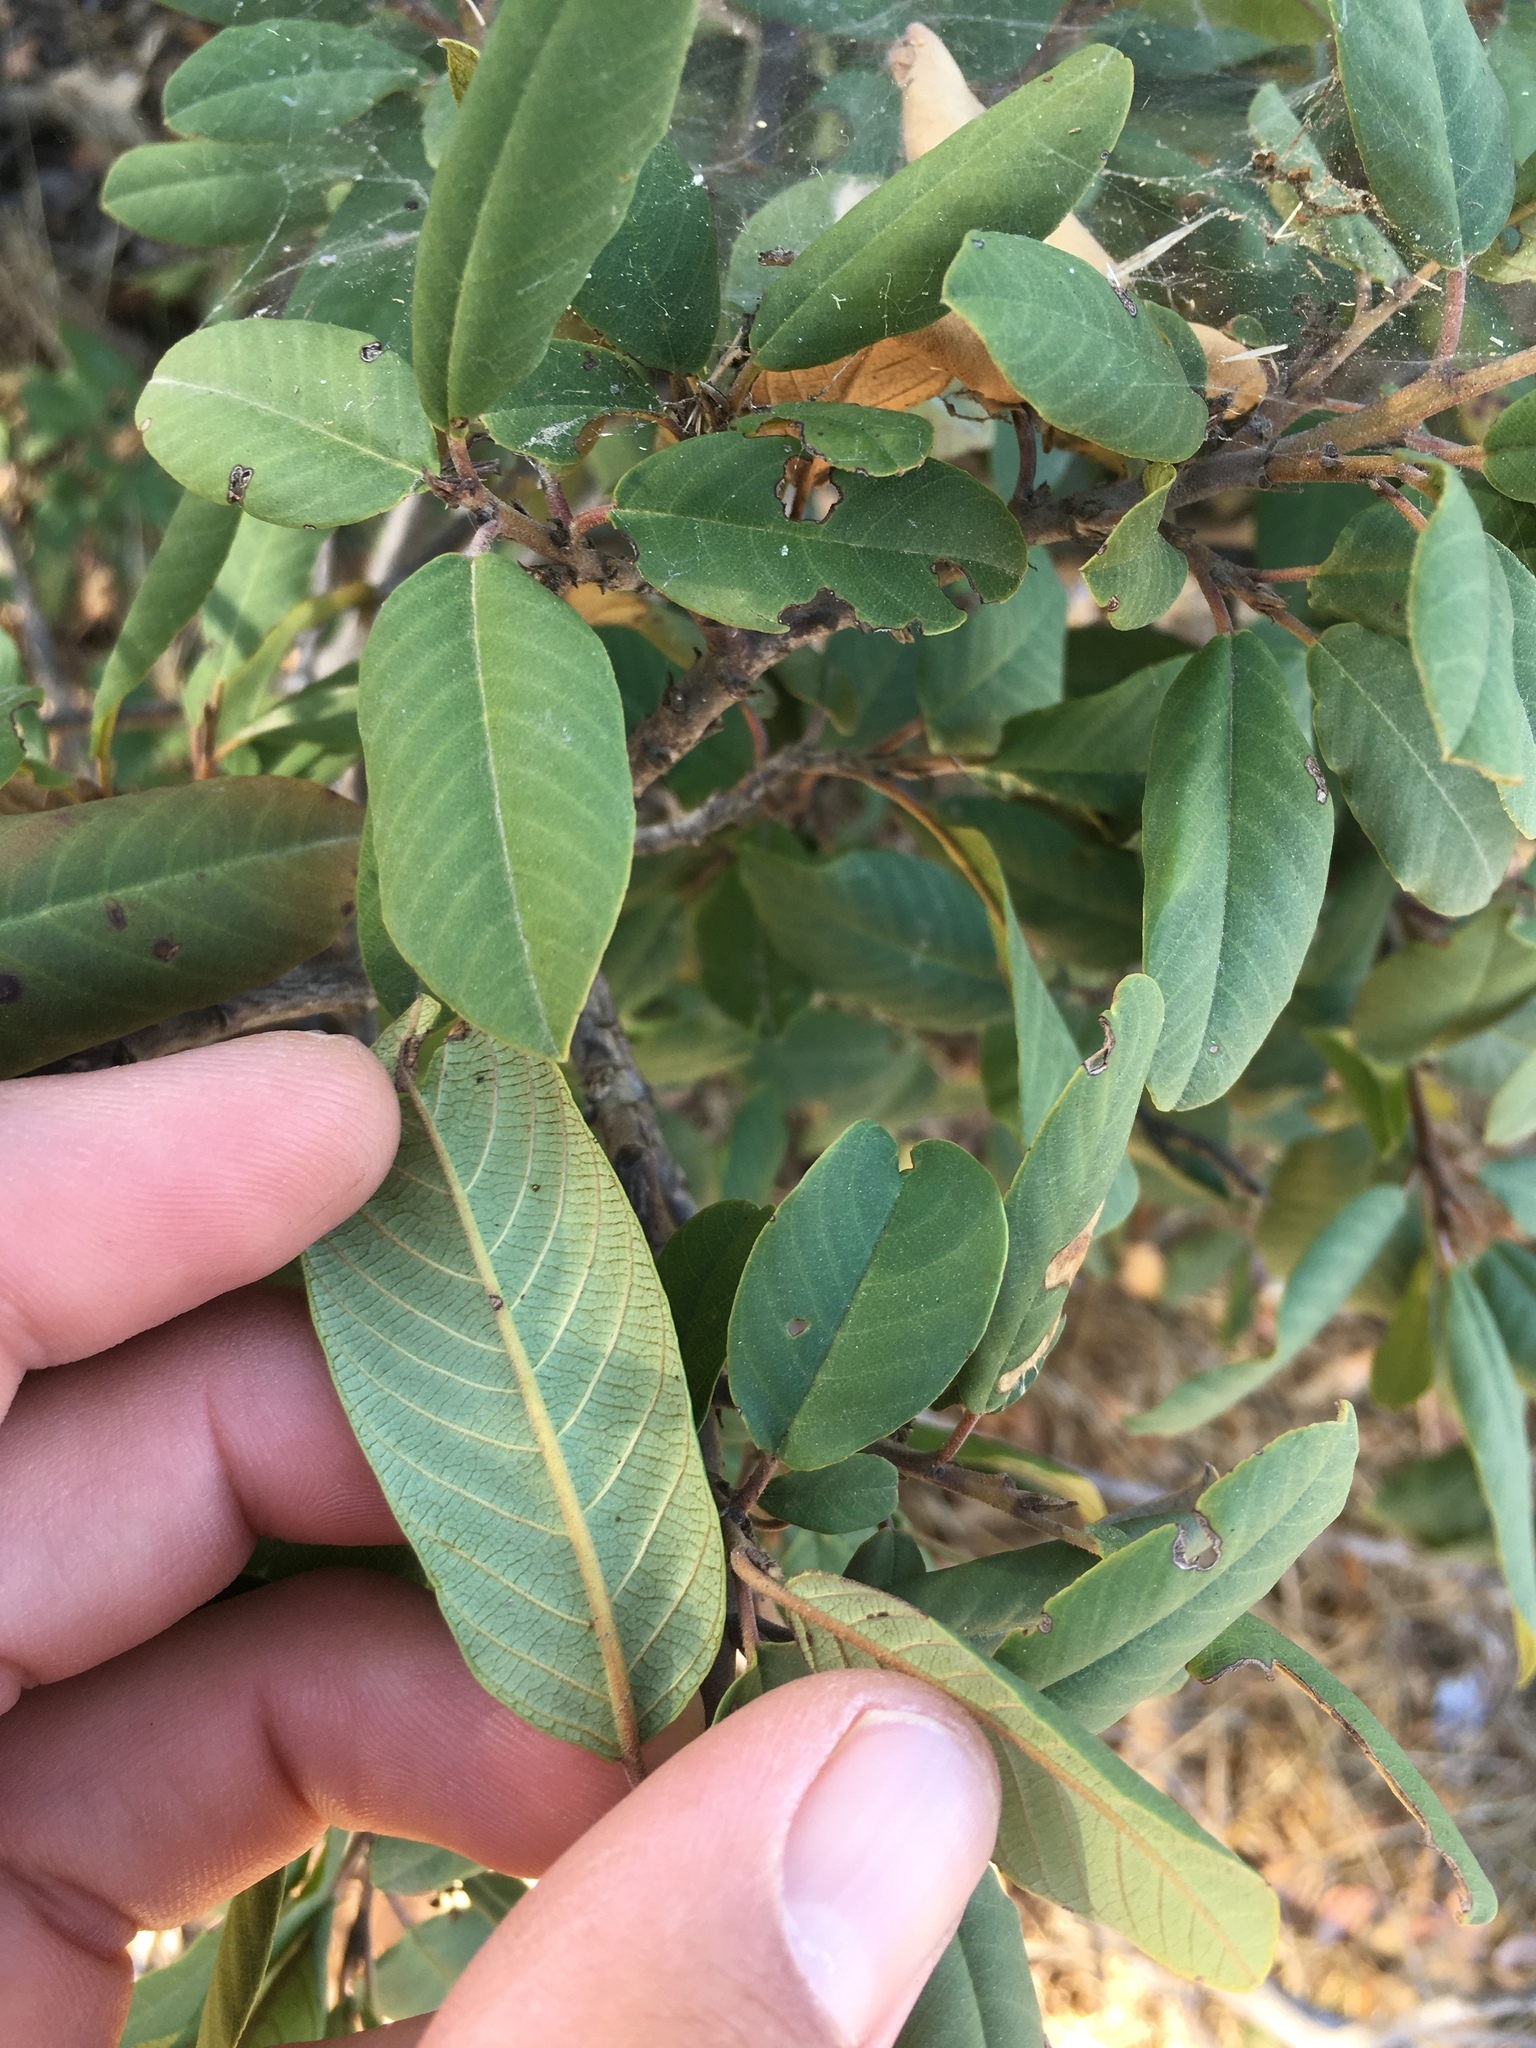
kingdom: Plantae
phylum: Tracheophyta
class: Magnoliopsida
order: Rosales
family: Rhamnaceae
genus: Frangula
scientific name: Frangula californica
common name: California buckthorn
